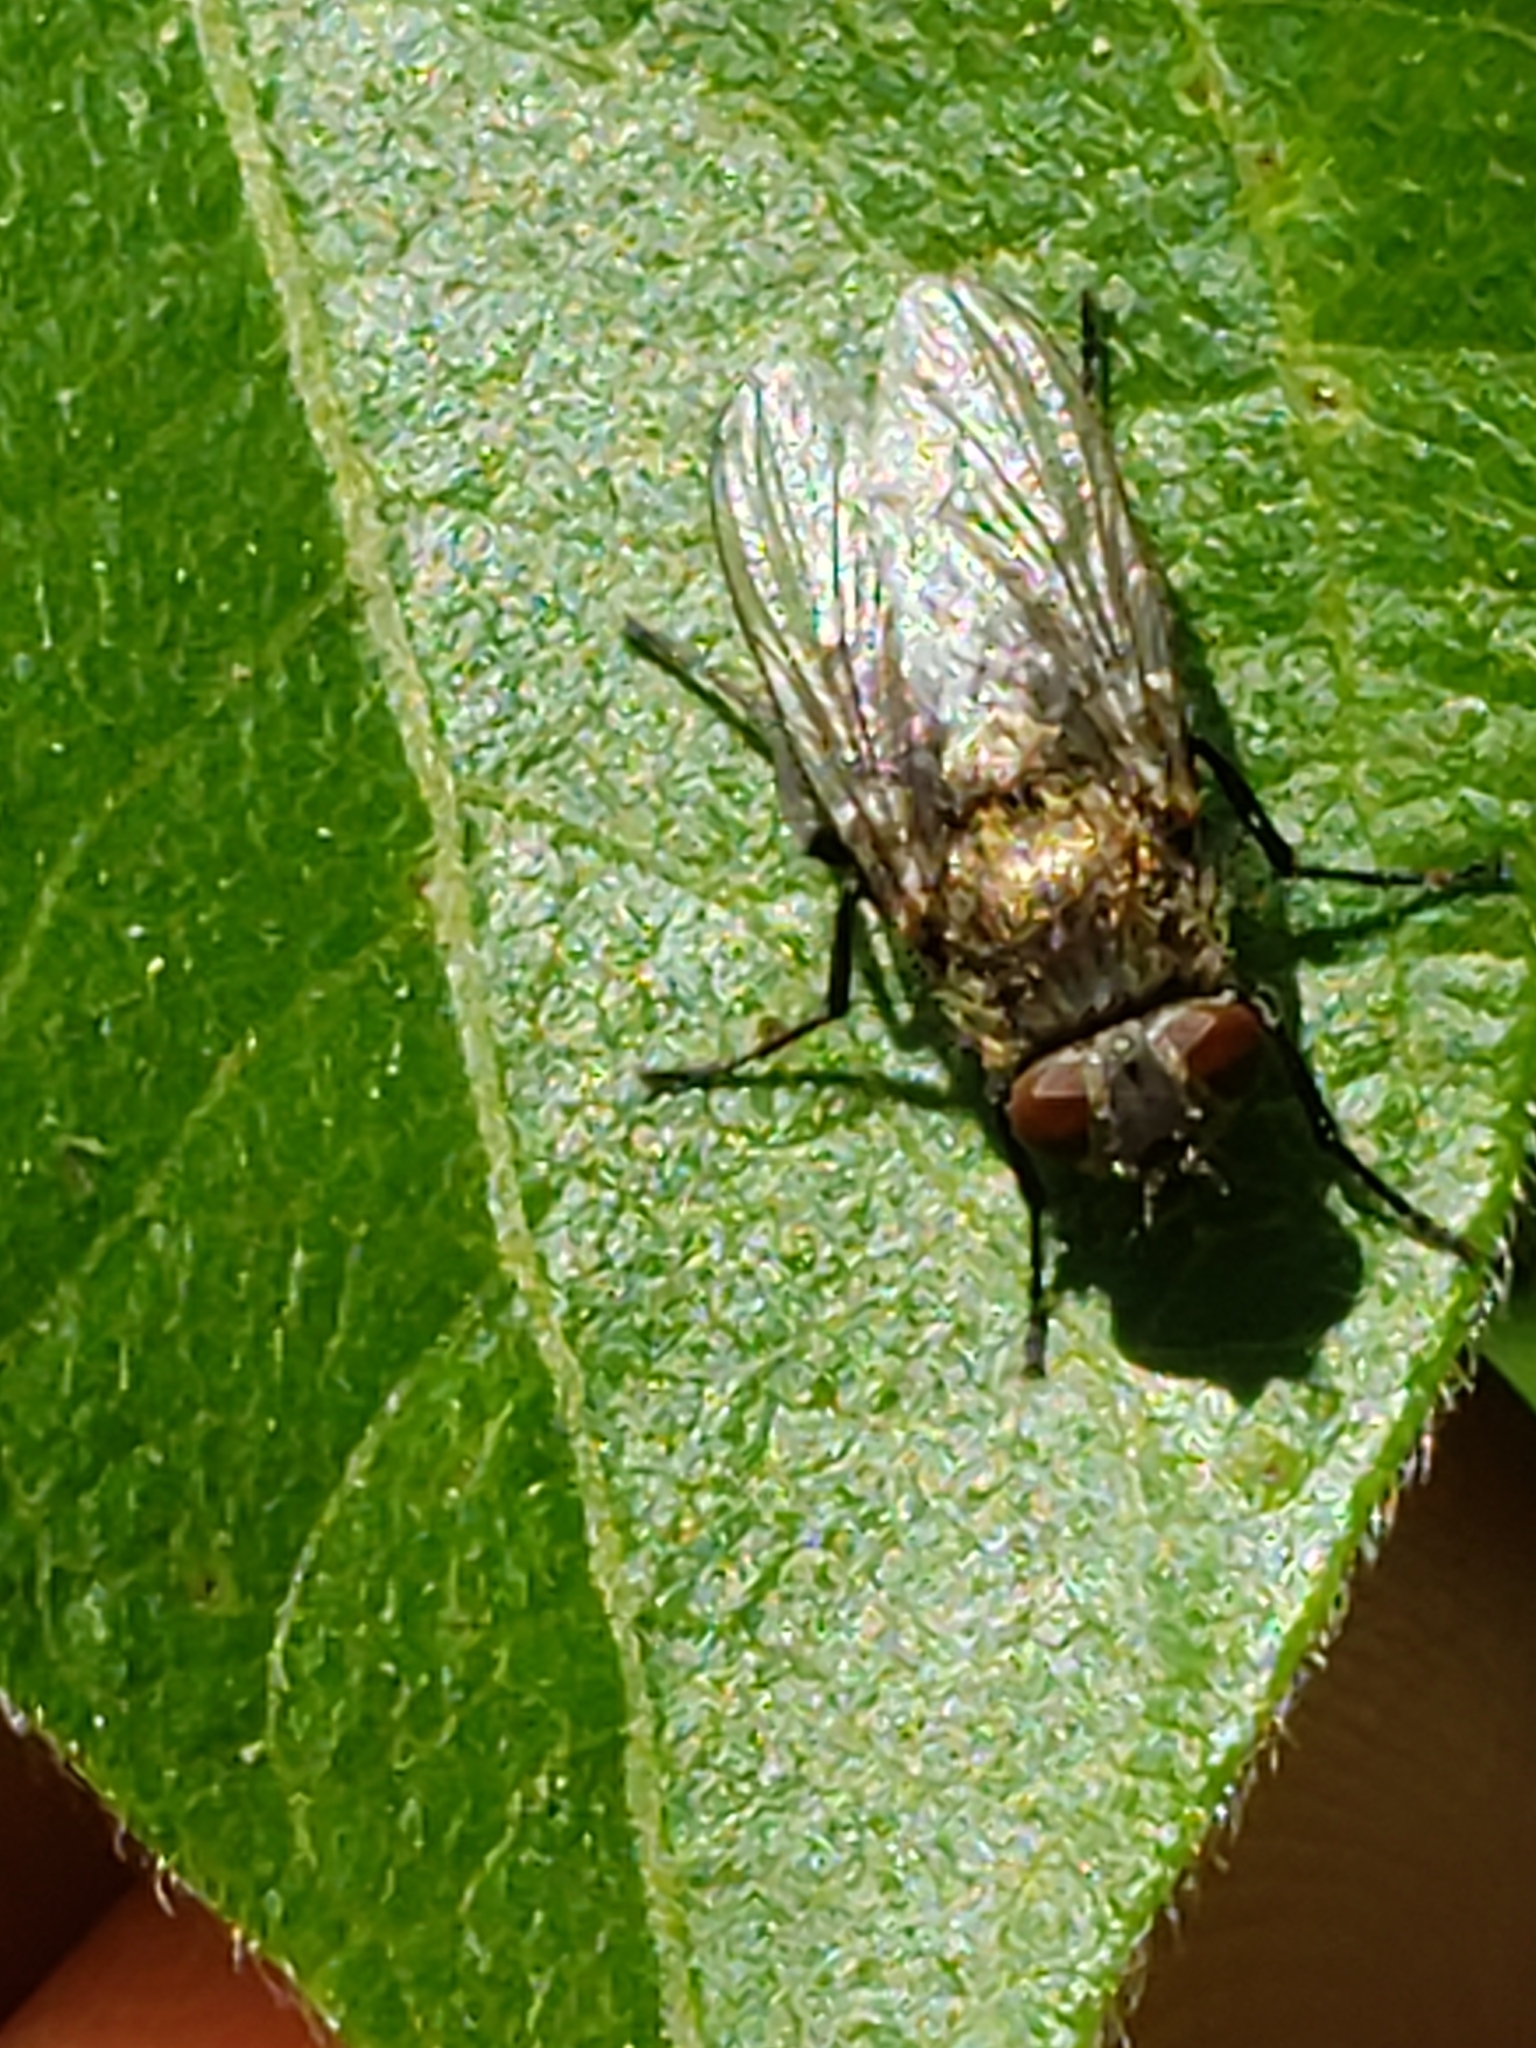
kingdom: Animalia
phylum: Arthropoda
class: Insecta
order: Diptera
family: Polleniidae
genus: Pollenia
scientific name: Pollenia
